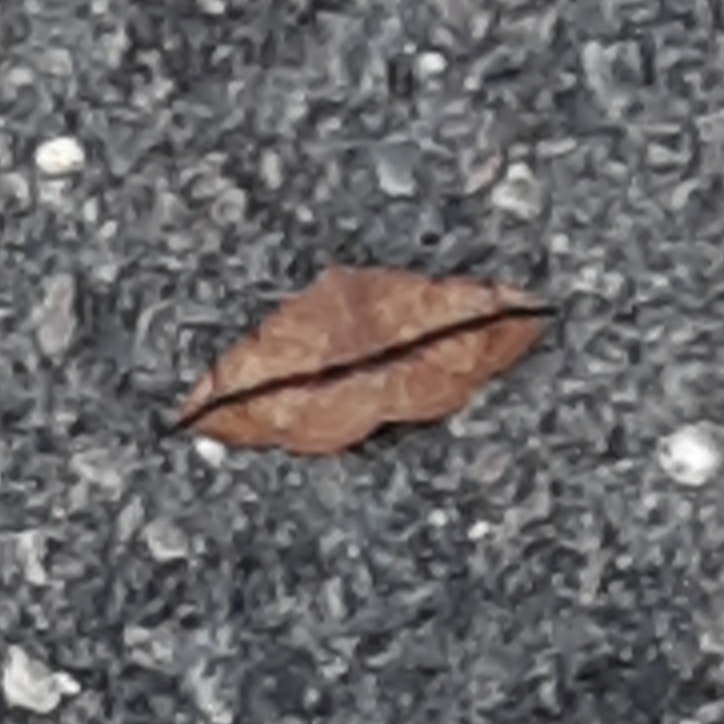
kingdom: Animalia
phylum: Arthropoda
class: Insecta
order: Lepidoptera
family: Erebidae
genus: Anticarsia
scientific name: Anticarsia gemmatalis
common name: Cutworm moth
